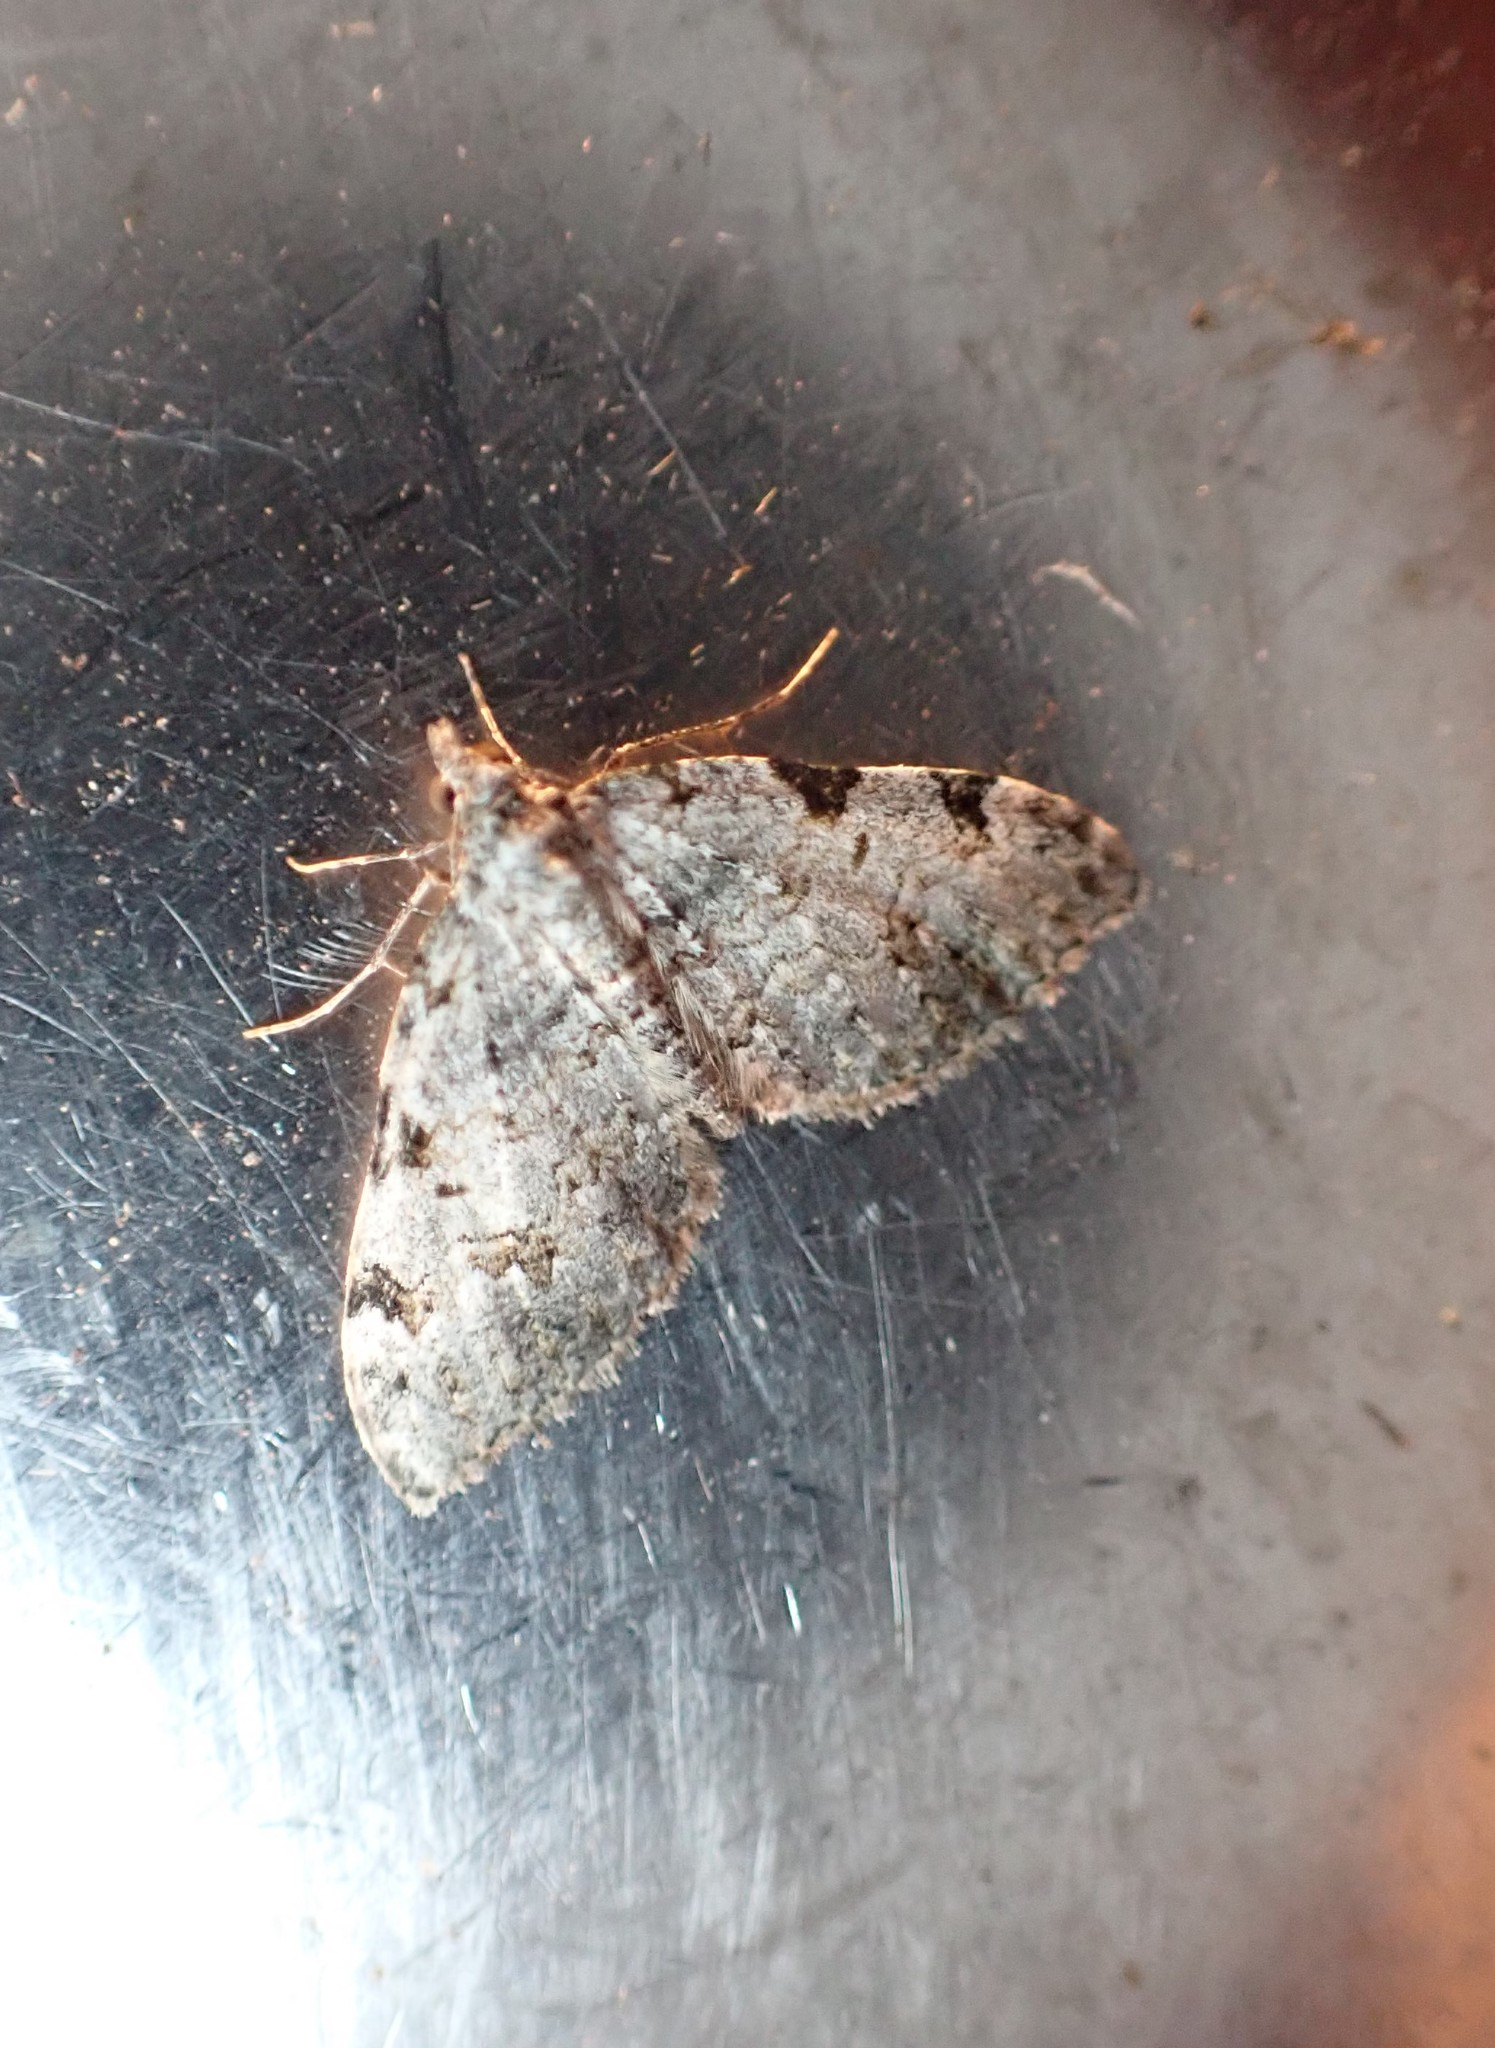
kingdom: Animalia
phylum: Arthropoda
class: Insecta
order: Lepidoptera
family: Geometridae
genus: Helastia
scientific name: Helastia mutabilis
